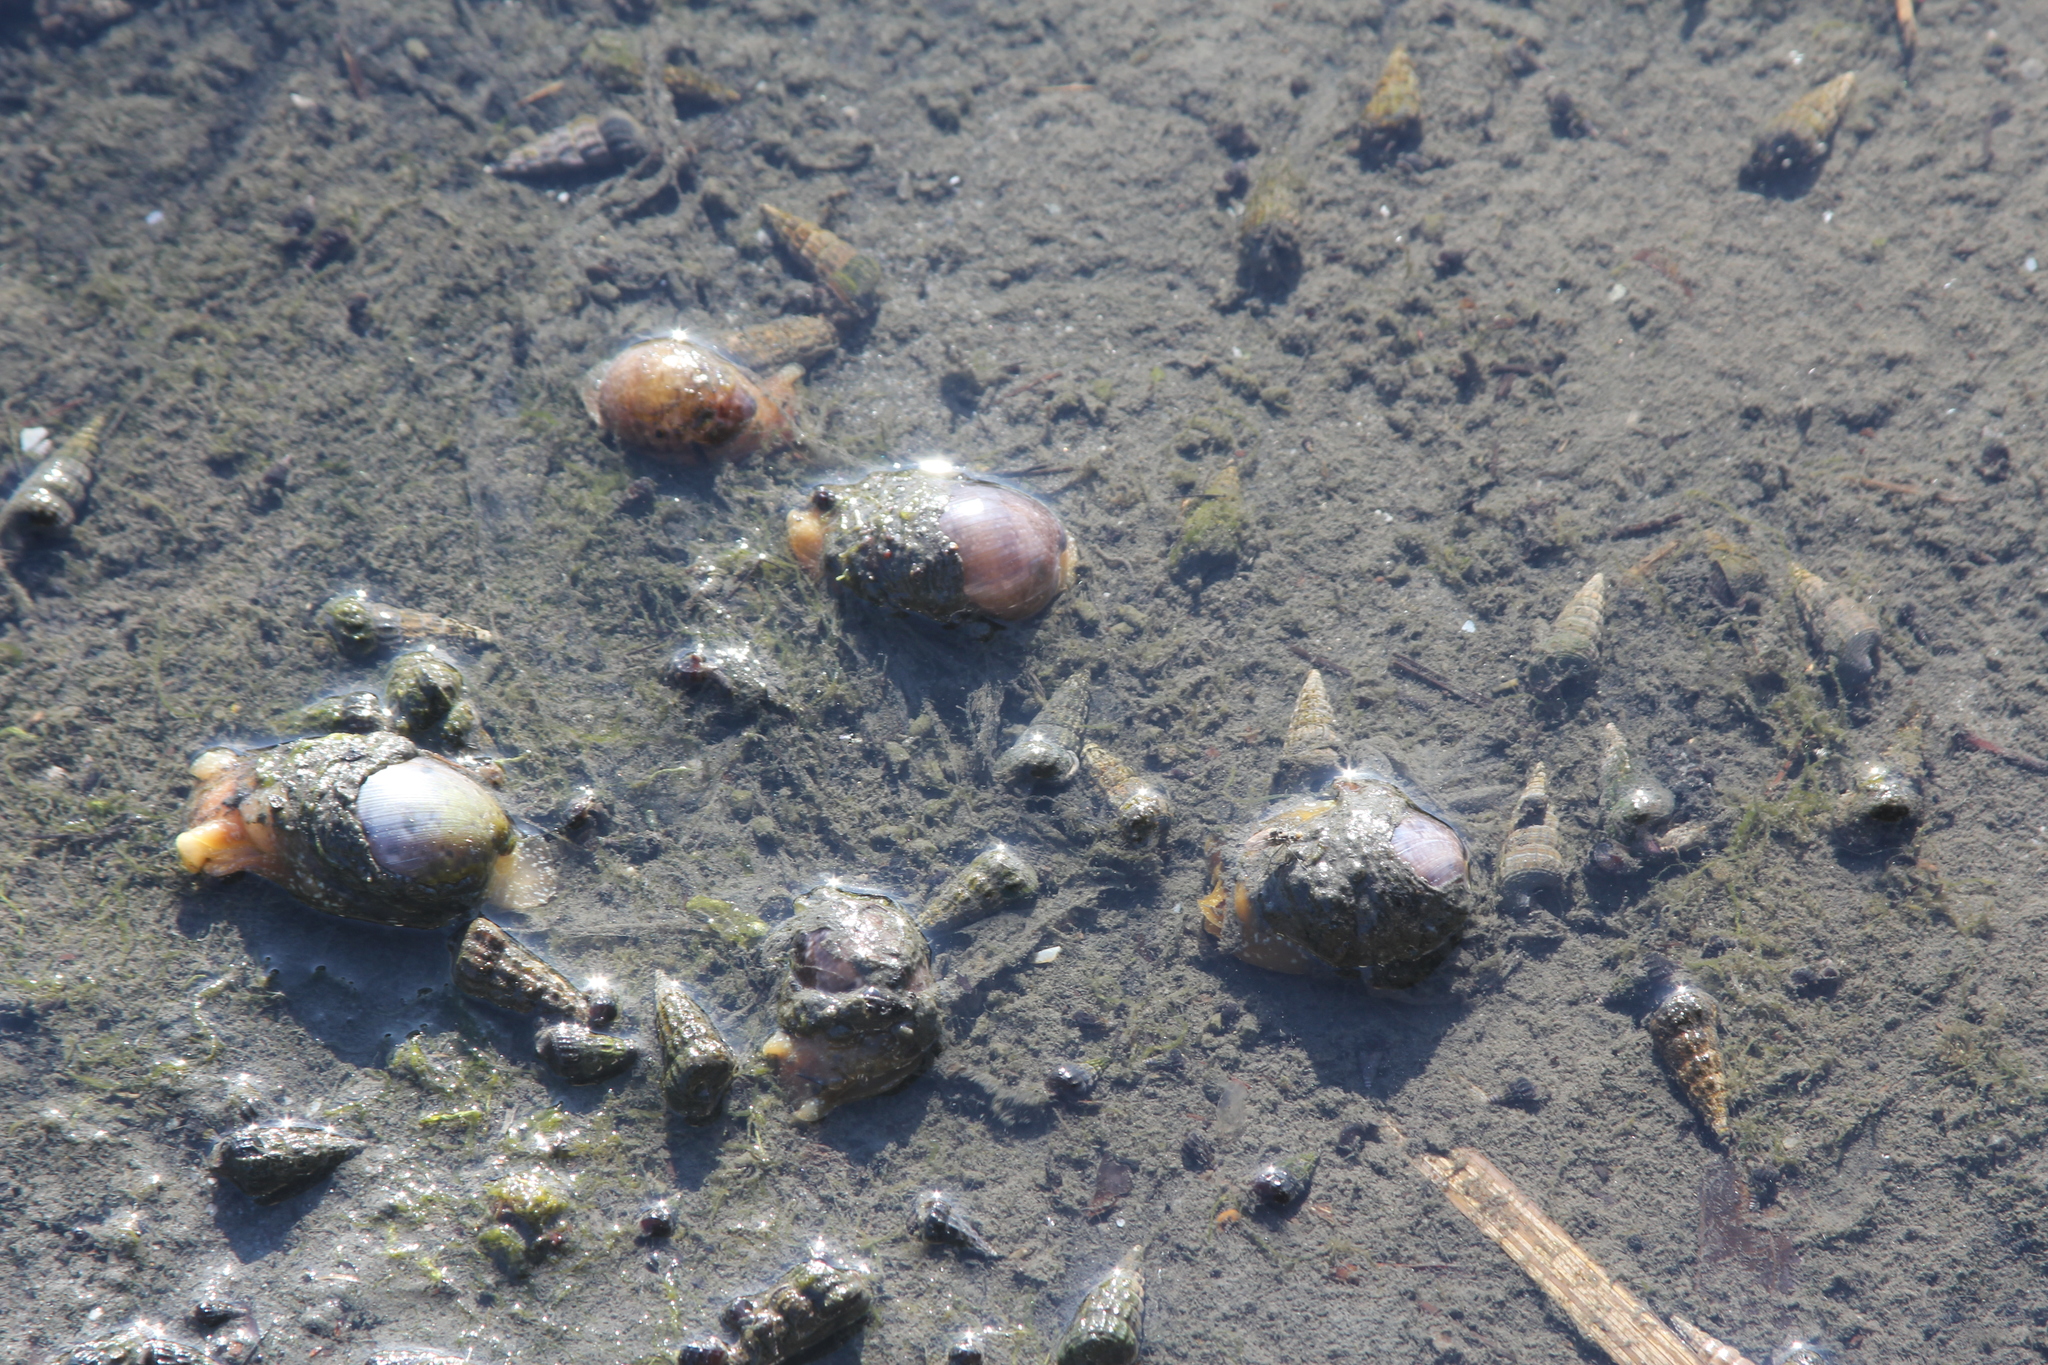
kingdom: Animalia
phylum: Mollusca
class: Gastropoda
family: Potamididae
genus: Cerithideopsis
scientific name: Cerithideopsis californica
